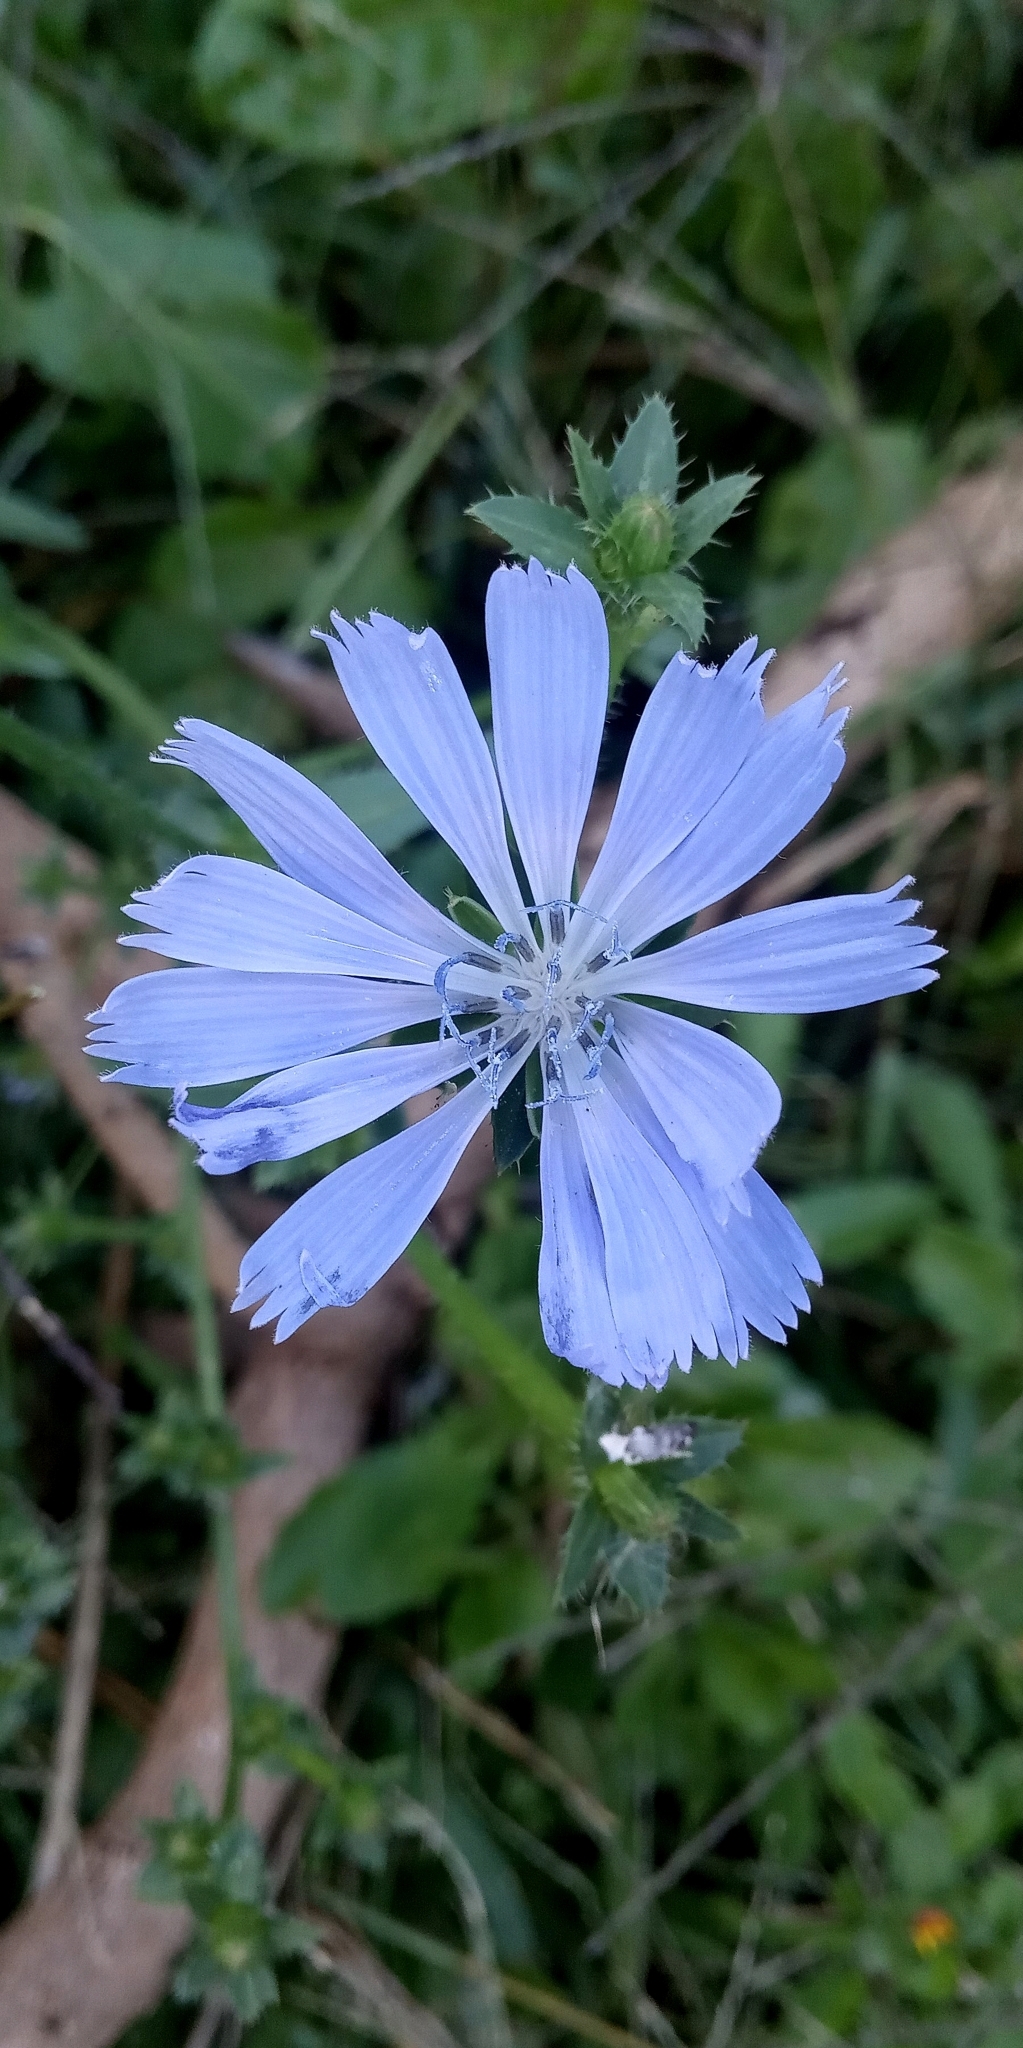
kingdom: Plantae
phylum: Tracheophyta
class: Magnoliopsida
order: Asterales
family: Asteraceae
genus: Cichorium
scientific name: Cichorium intybus
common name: Chicory
